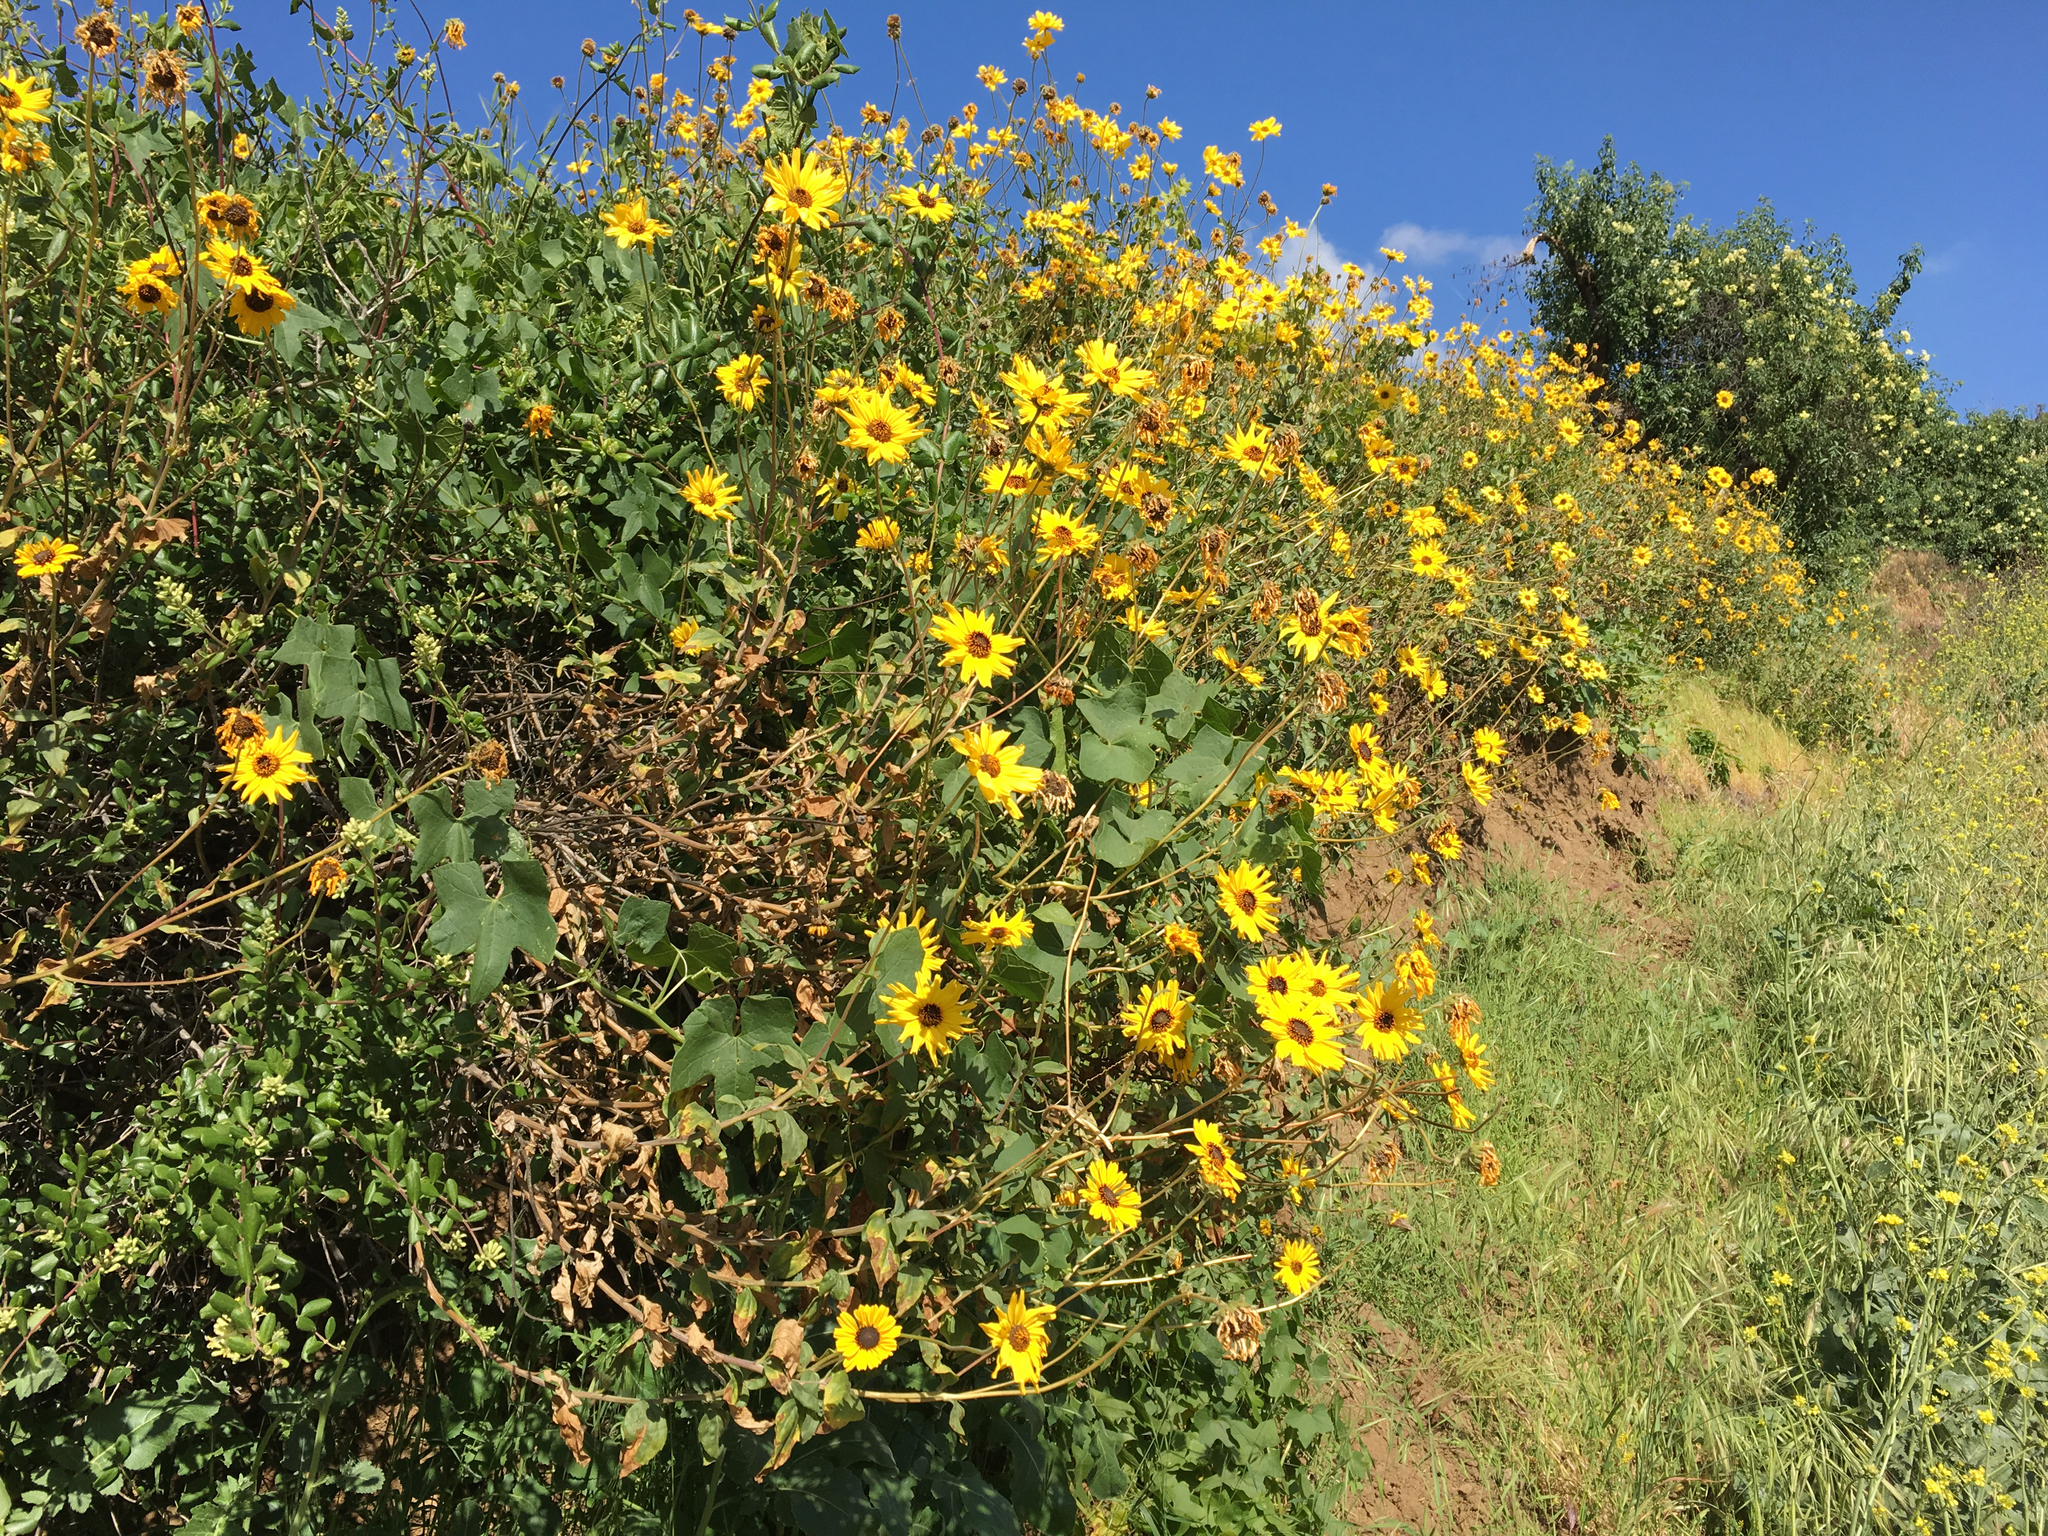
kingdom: Plantae
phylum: Tracheophyta
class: Magnoliopsida
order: Asterales
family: Asteraceae
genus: Encelia
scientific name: Encelia californica
